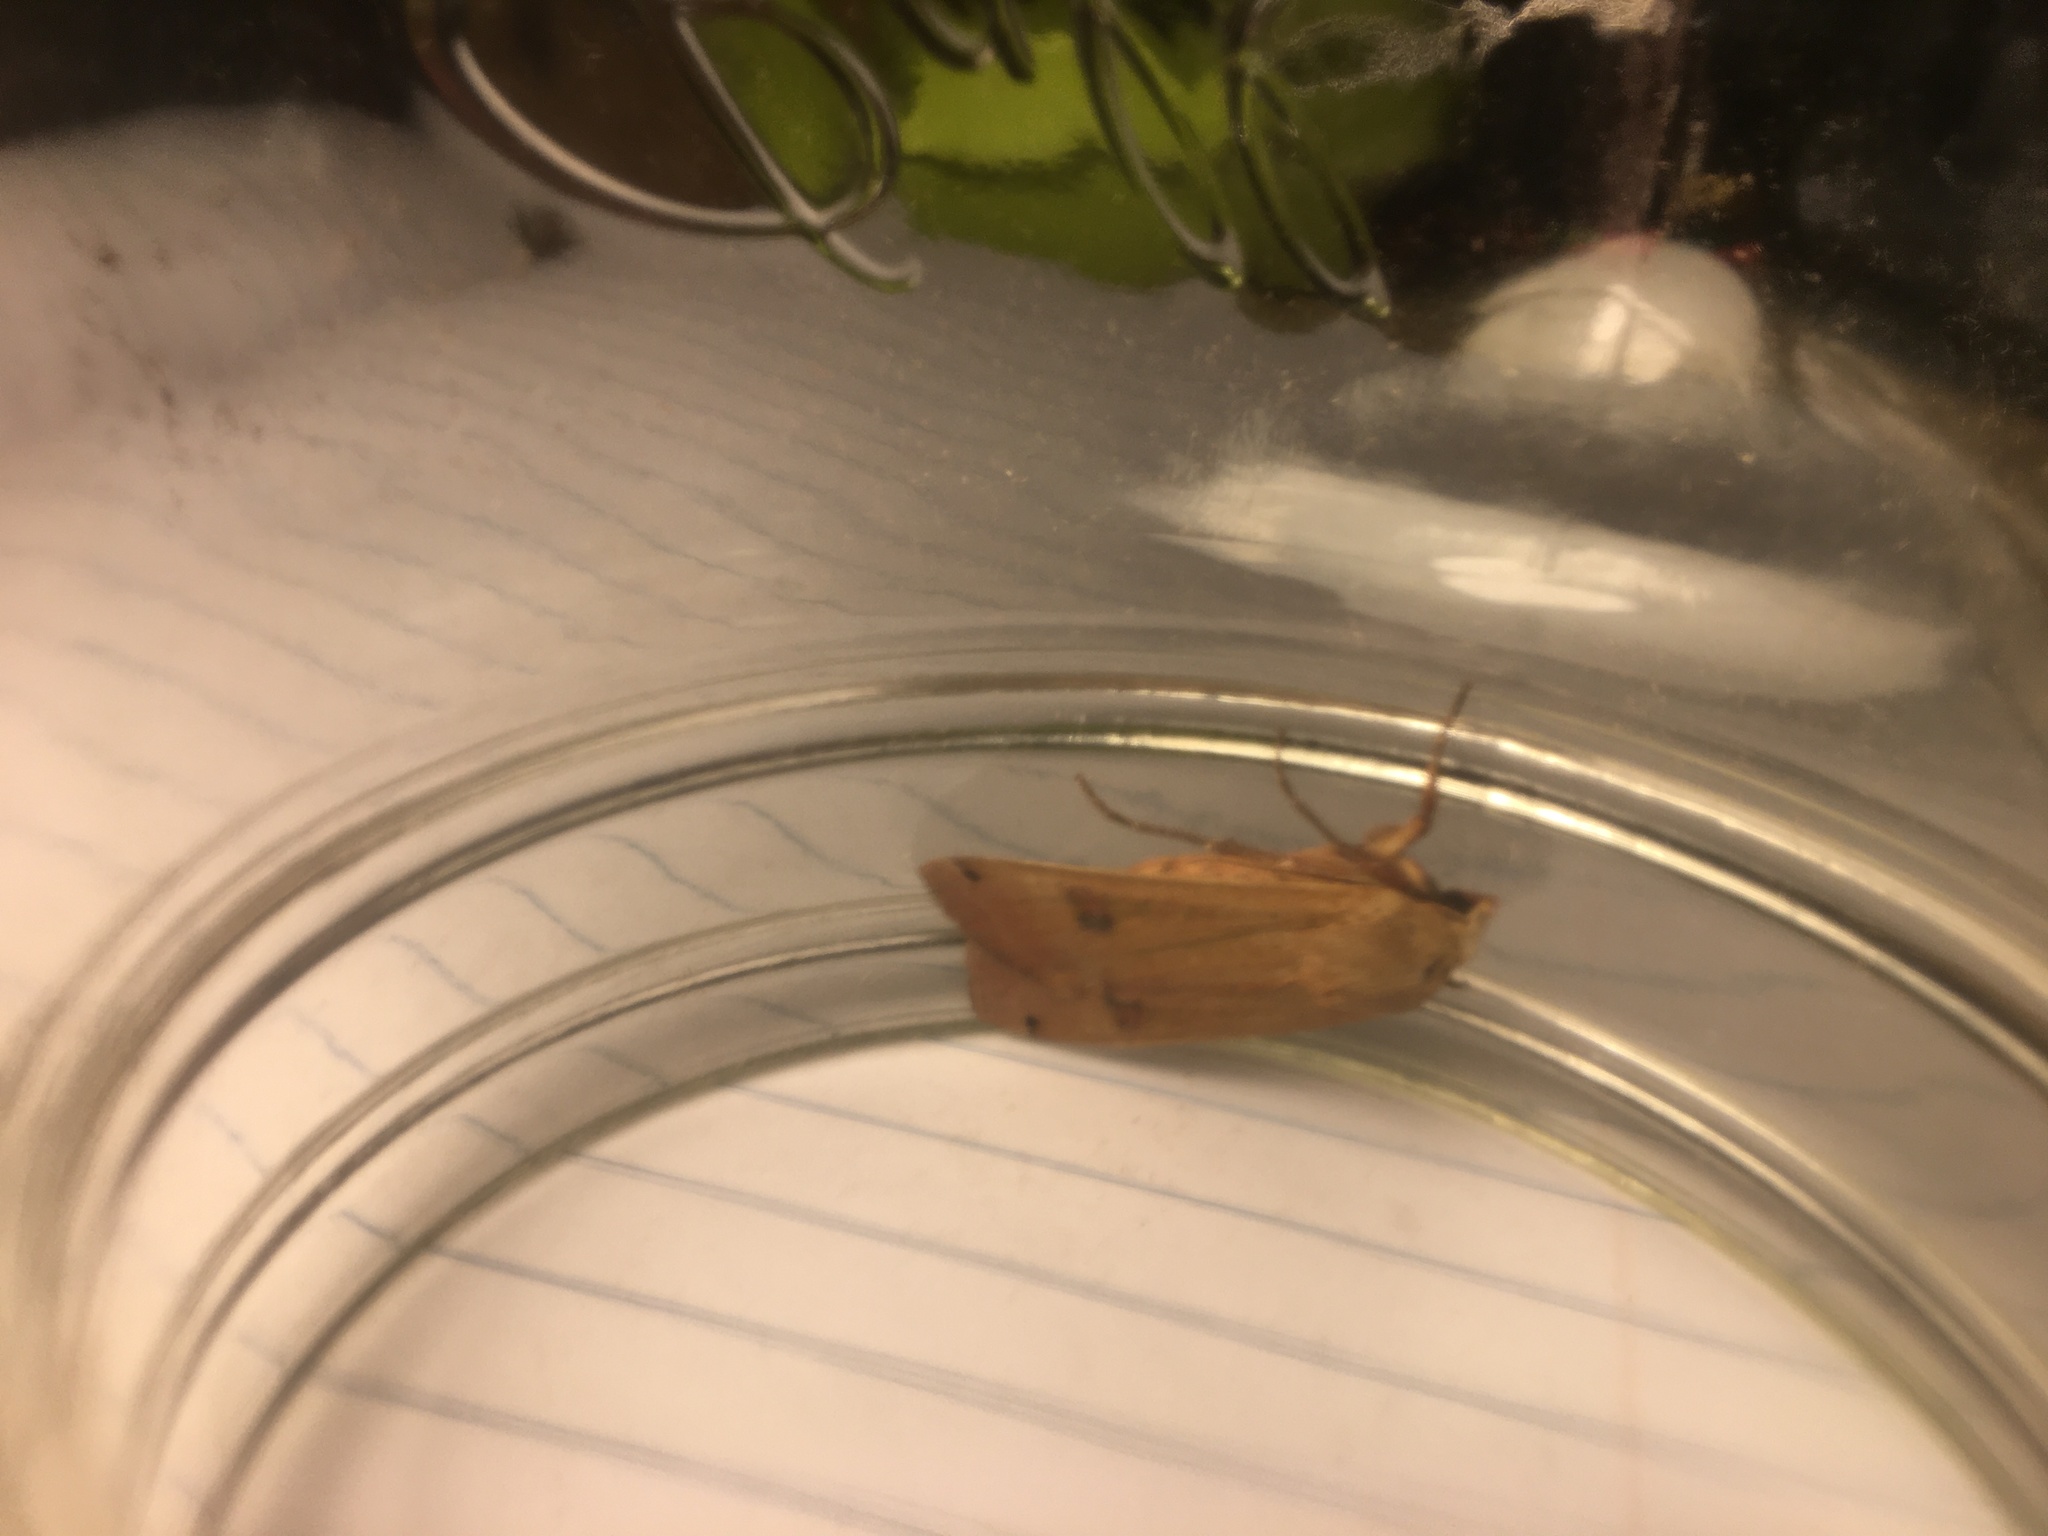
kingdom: Animalia
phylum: Arthropoda
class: Insecta
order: Lepidoptera
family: Noctuidae
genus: Noctua
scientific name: Noctua pronuba
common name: Large yellow underwing
